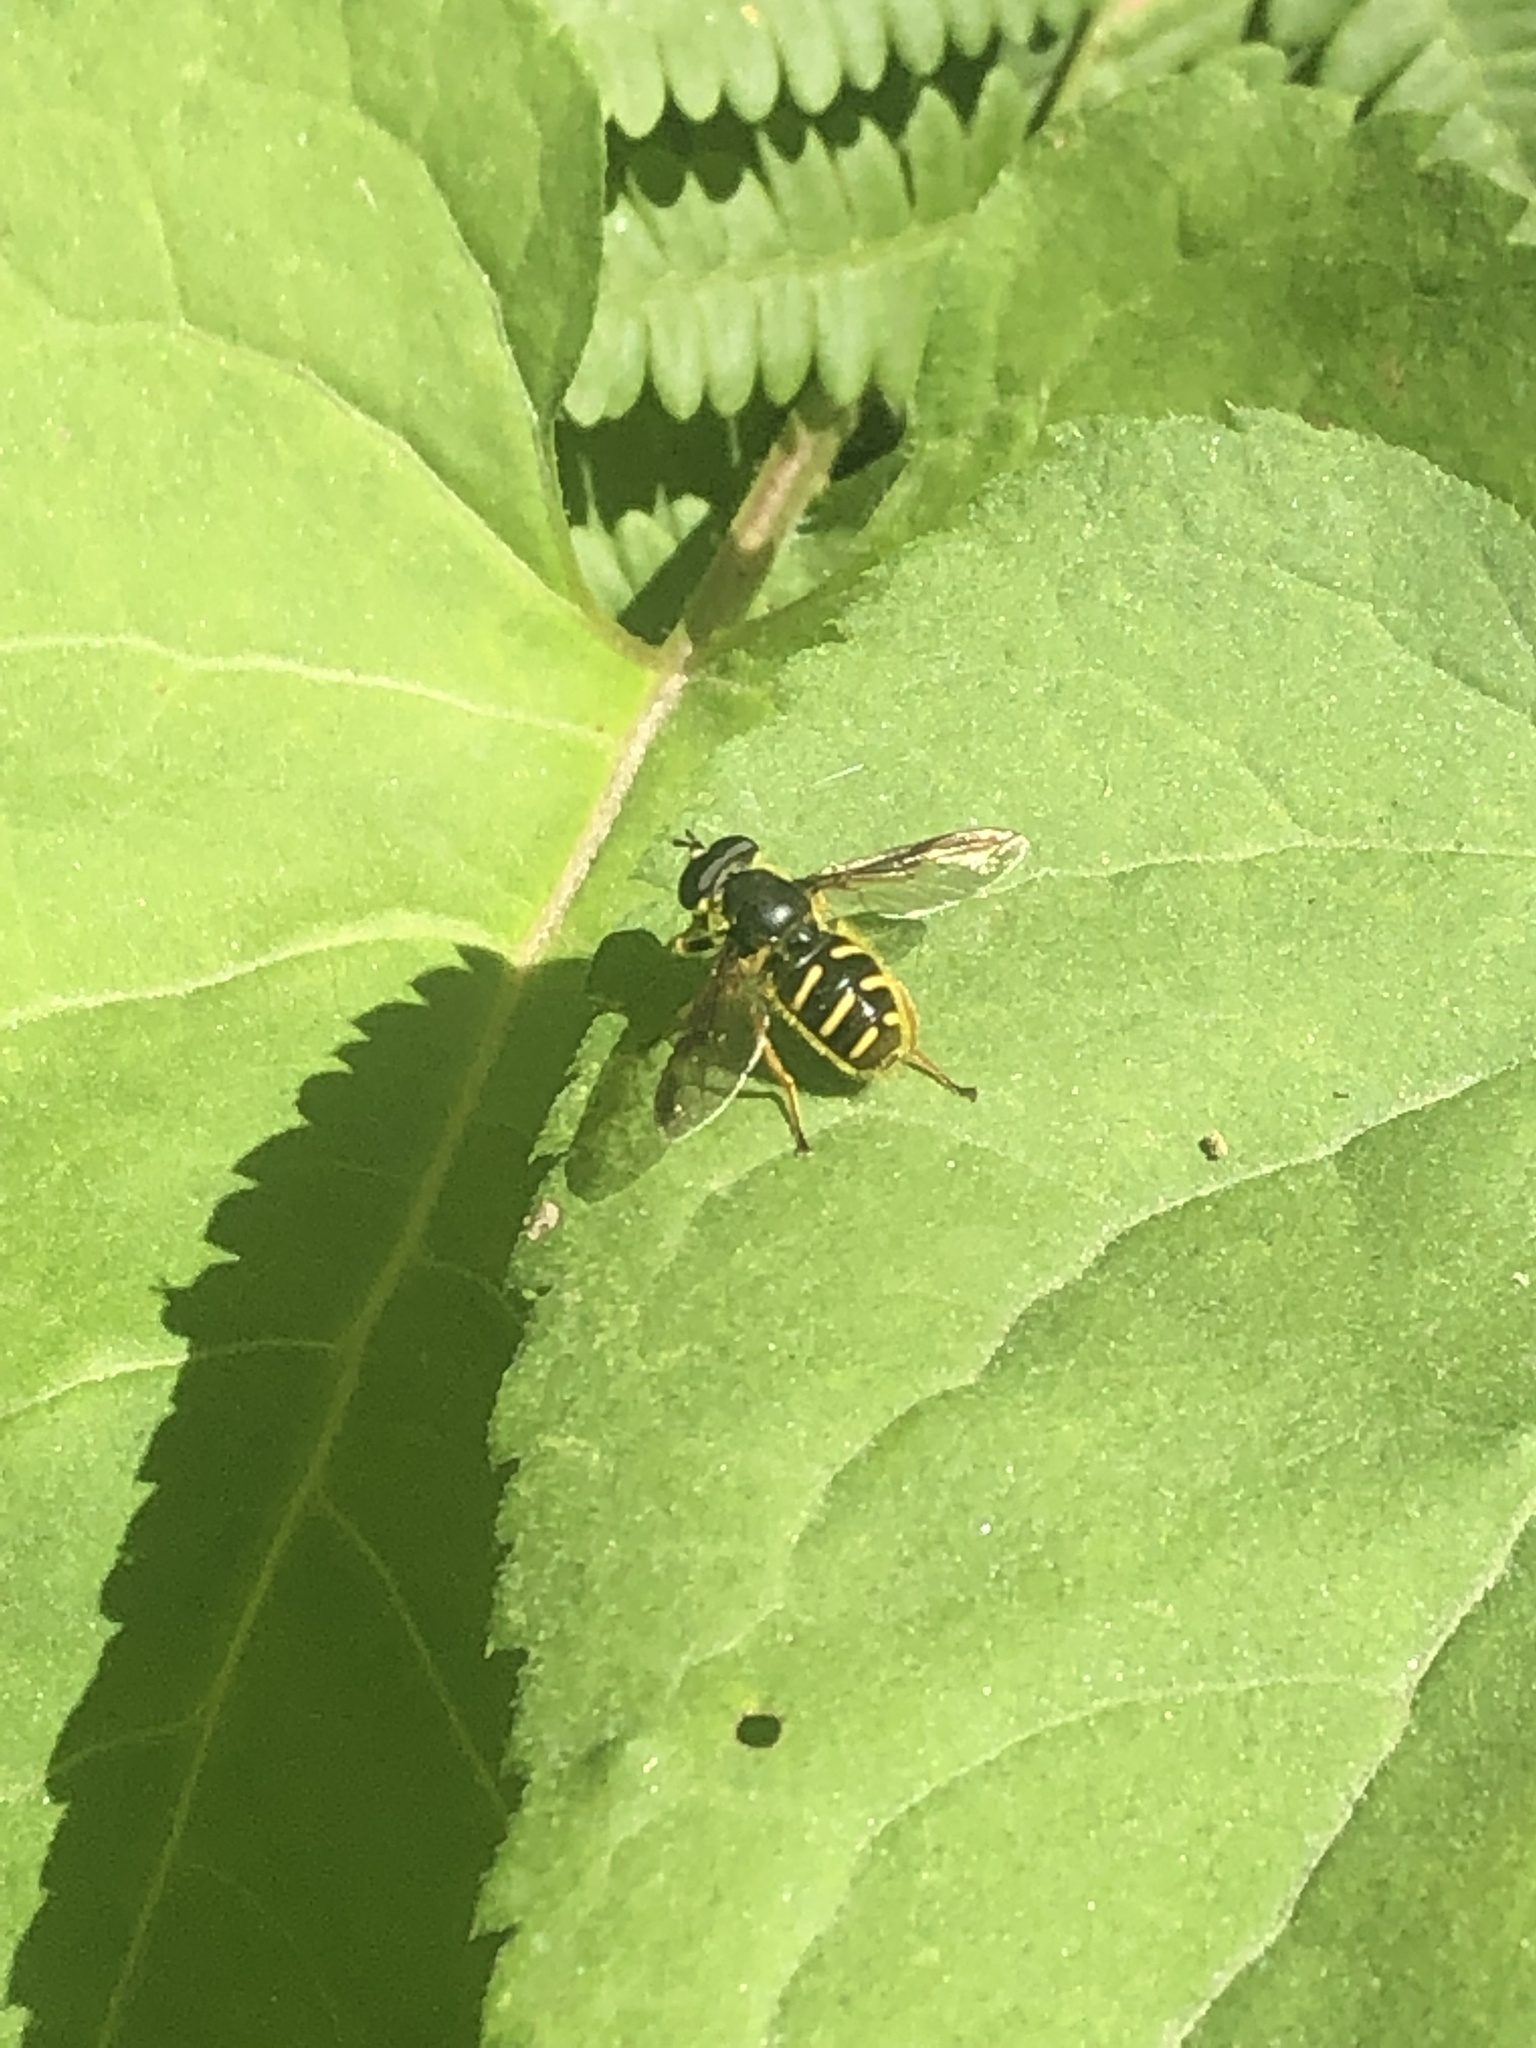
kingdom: Animalia
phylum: Arthropoda
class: Insecta
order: Diptera
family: Syrphidae
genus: Sericomyia
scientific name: Sericomyia chrysotoxoides
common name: Oblique-banded pond fly
